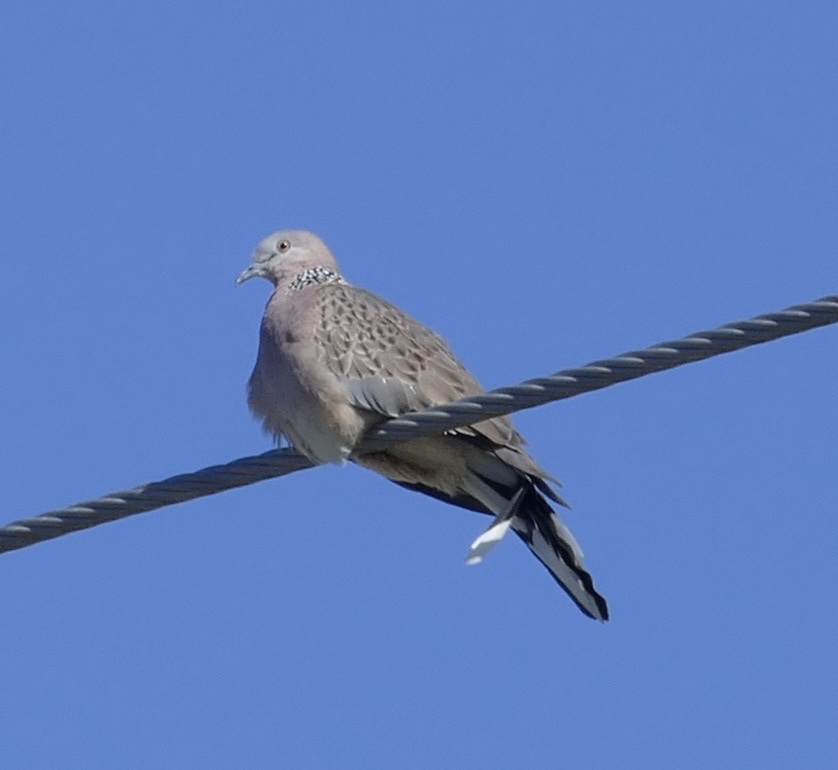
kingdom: Animalia
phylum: Chordata
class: Aves
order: Columbiformes
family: Columbidae
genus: Spilopelia
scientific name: Spilopelia chinensis
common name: Spotted dove
